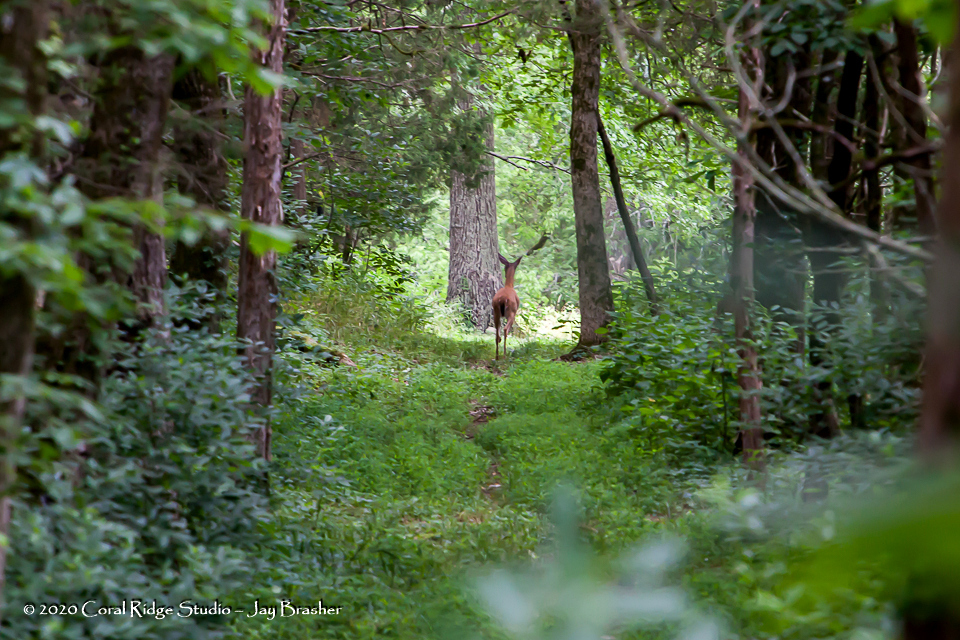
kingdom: Animalia
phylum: Chordata
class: Mammalia
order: Artiodactyla
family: Cervidae
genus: Odocoileus
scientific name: Odocoileus virginianus
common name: White-tailed deer
